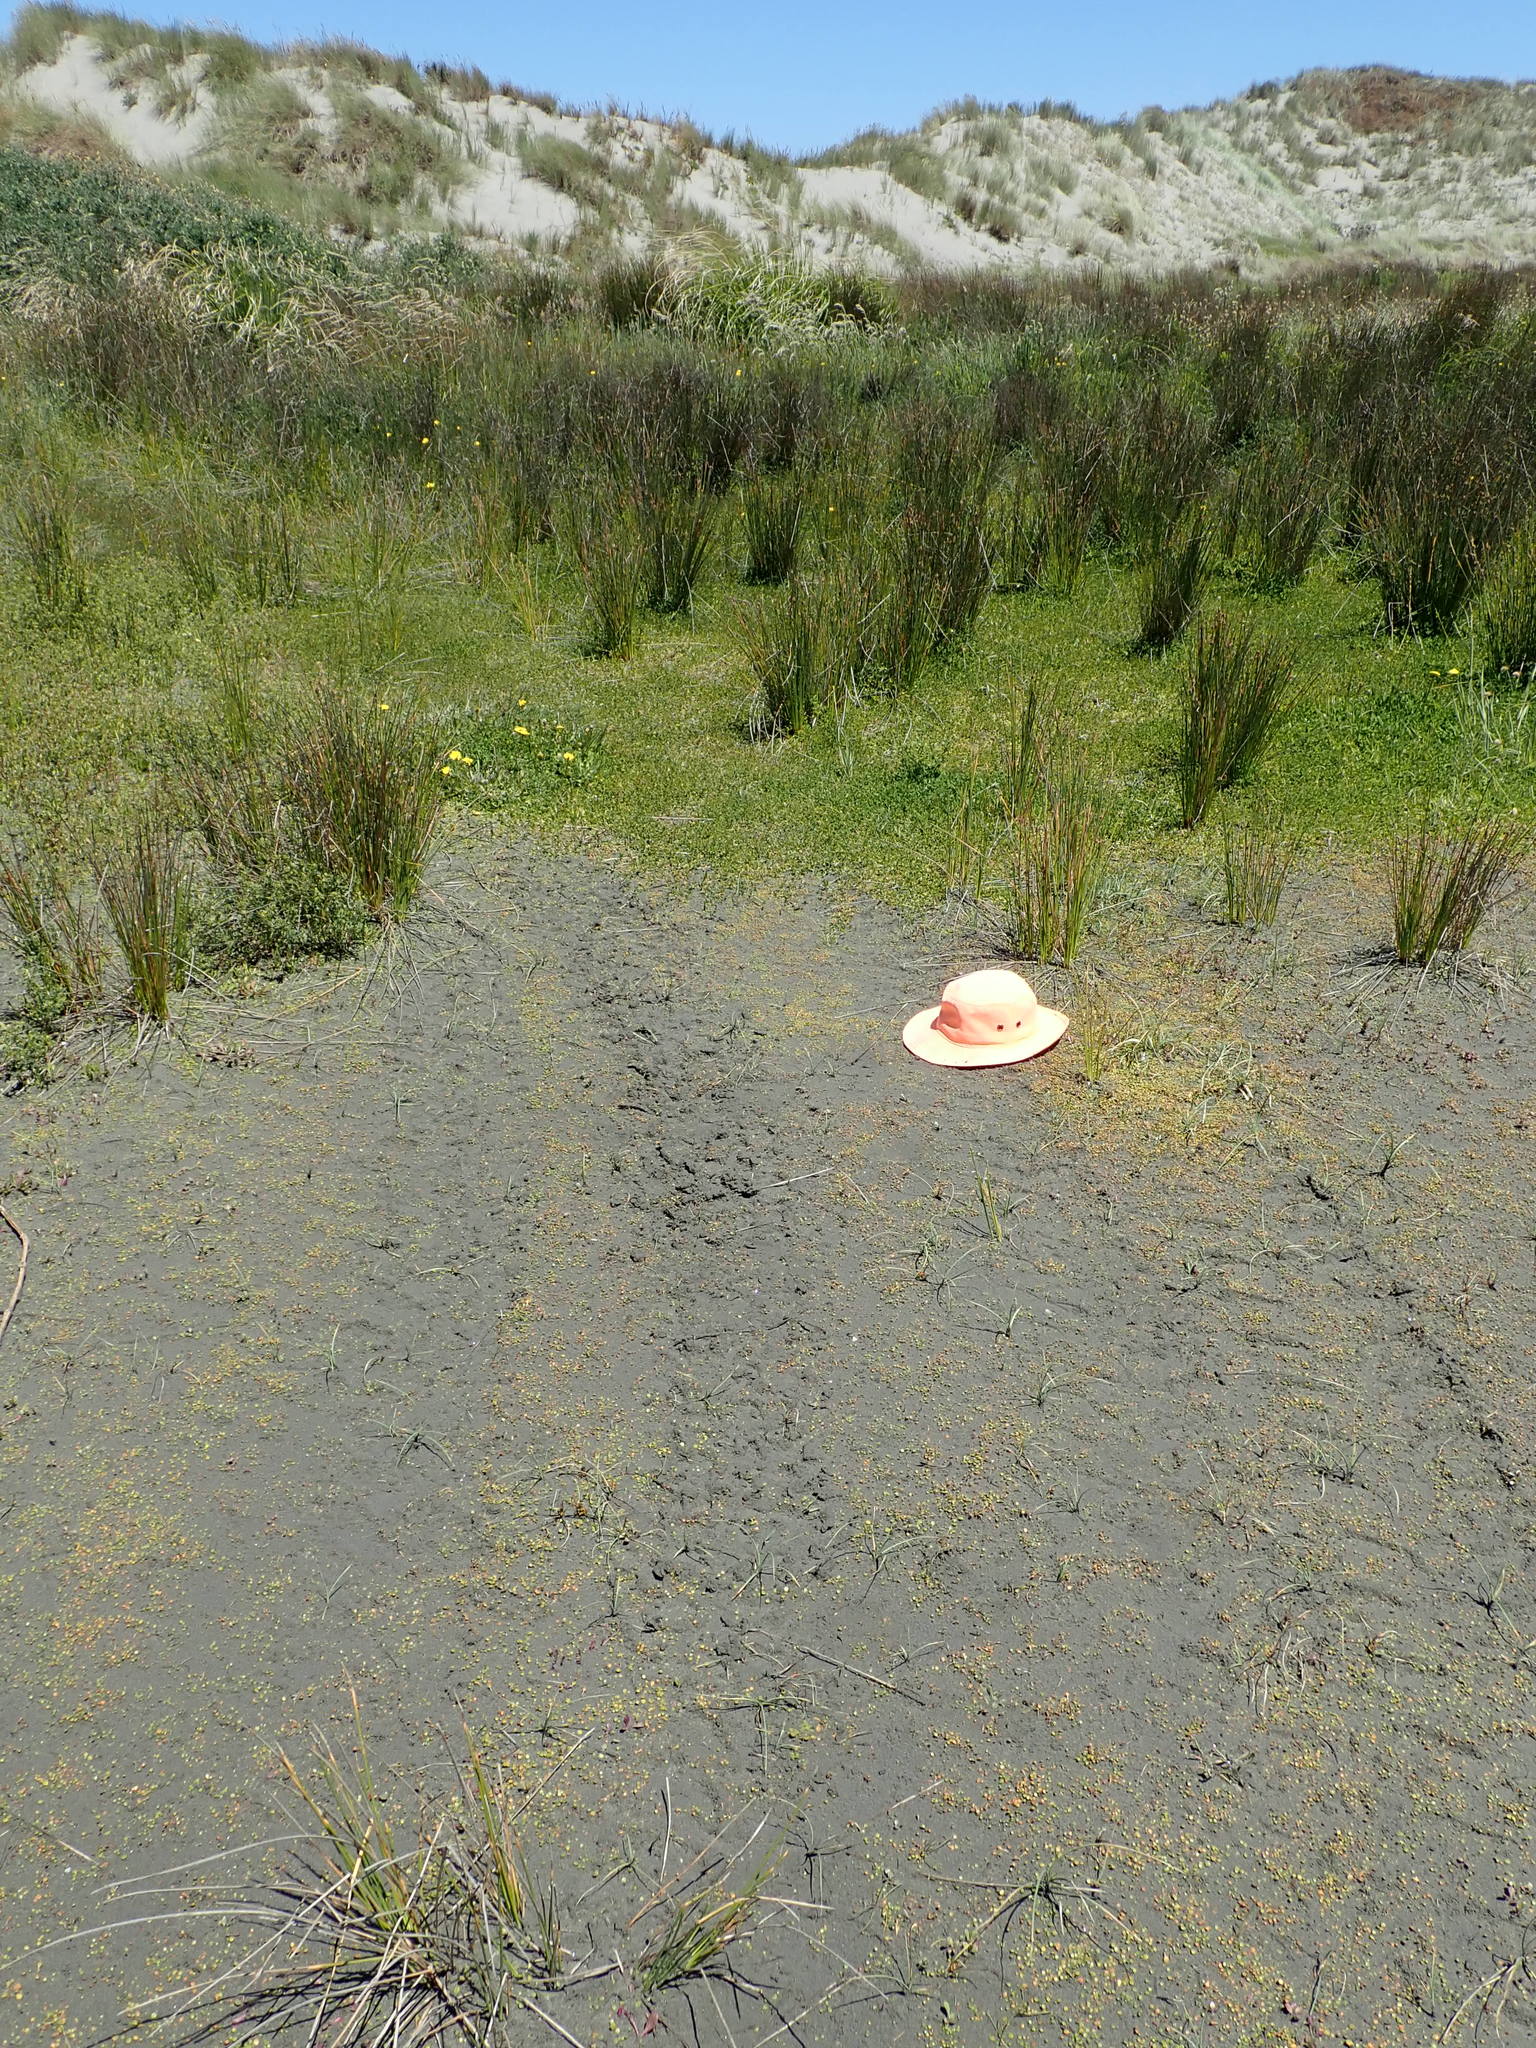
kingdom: Plantae
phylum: Tracheophyta
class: Magnoliopsida
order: Asterales
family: Goodeniaceae
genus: Goodenia
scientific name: Goodenia heenanii
